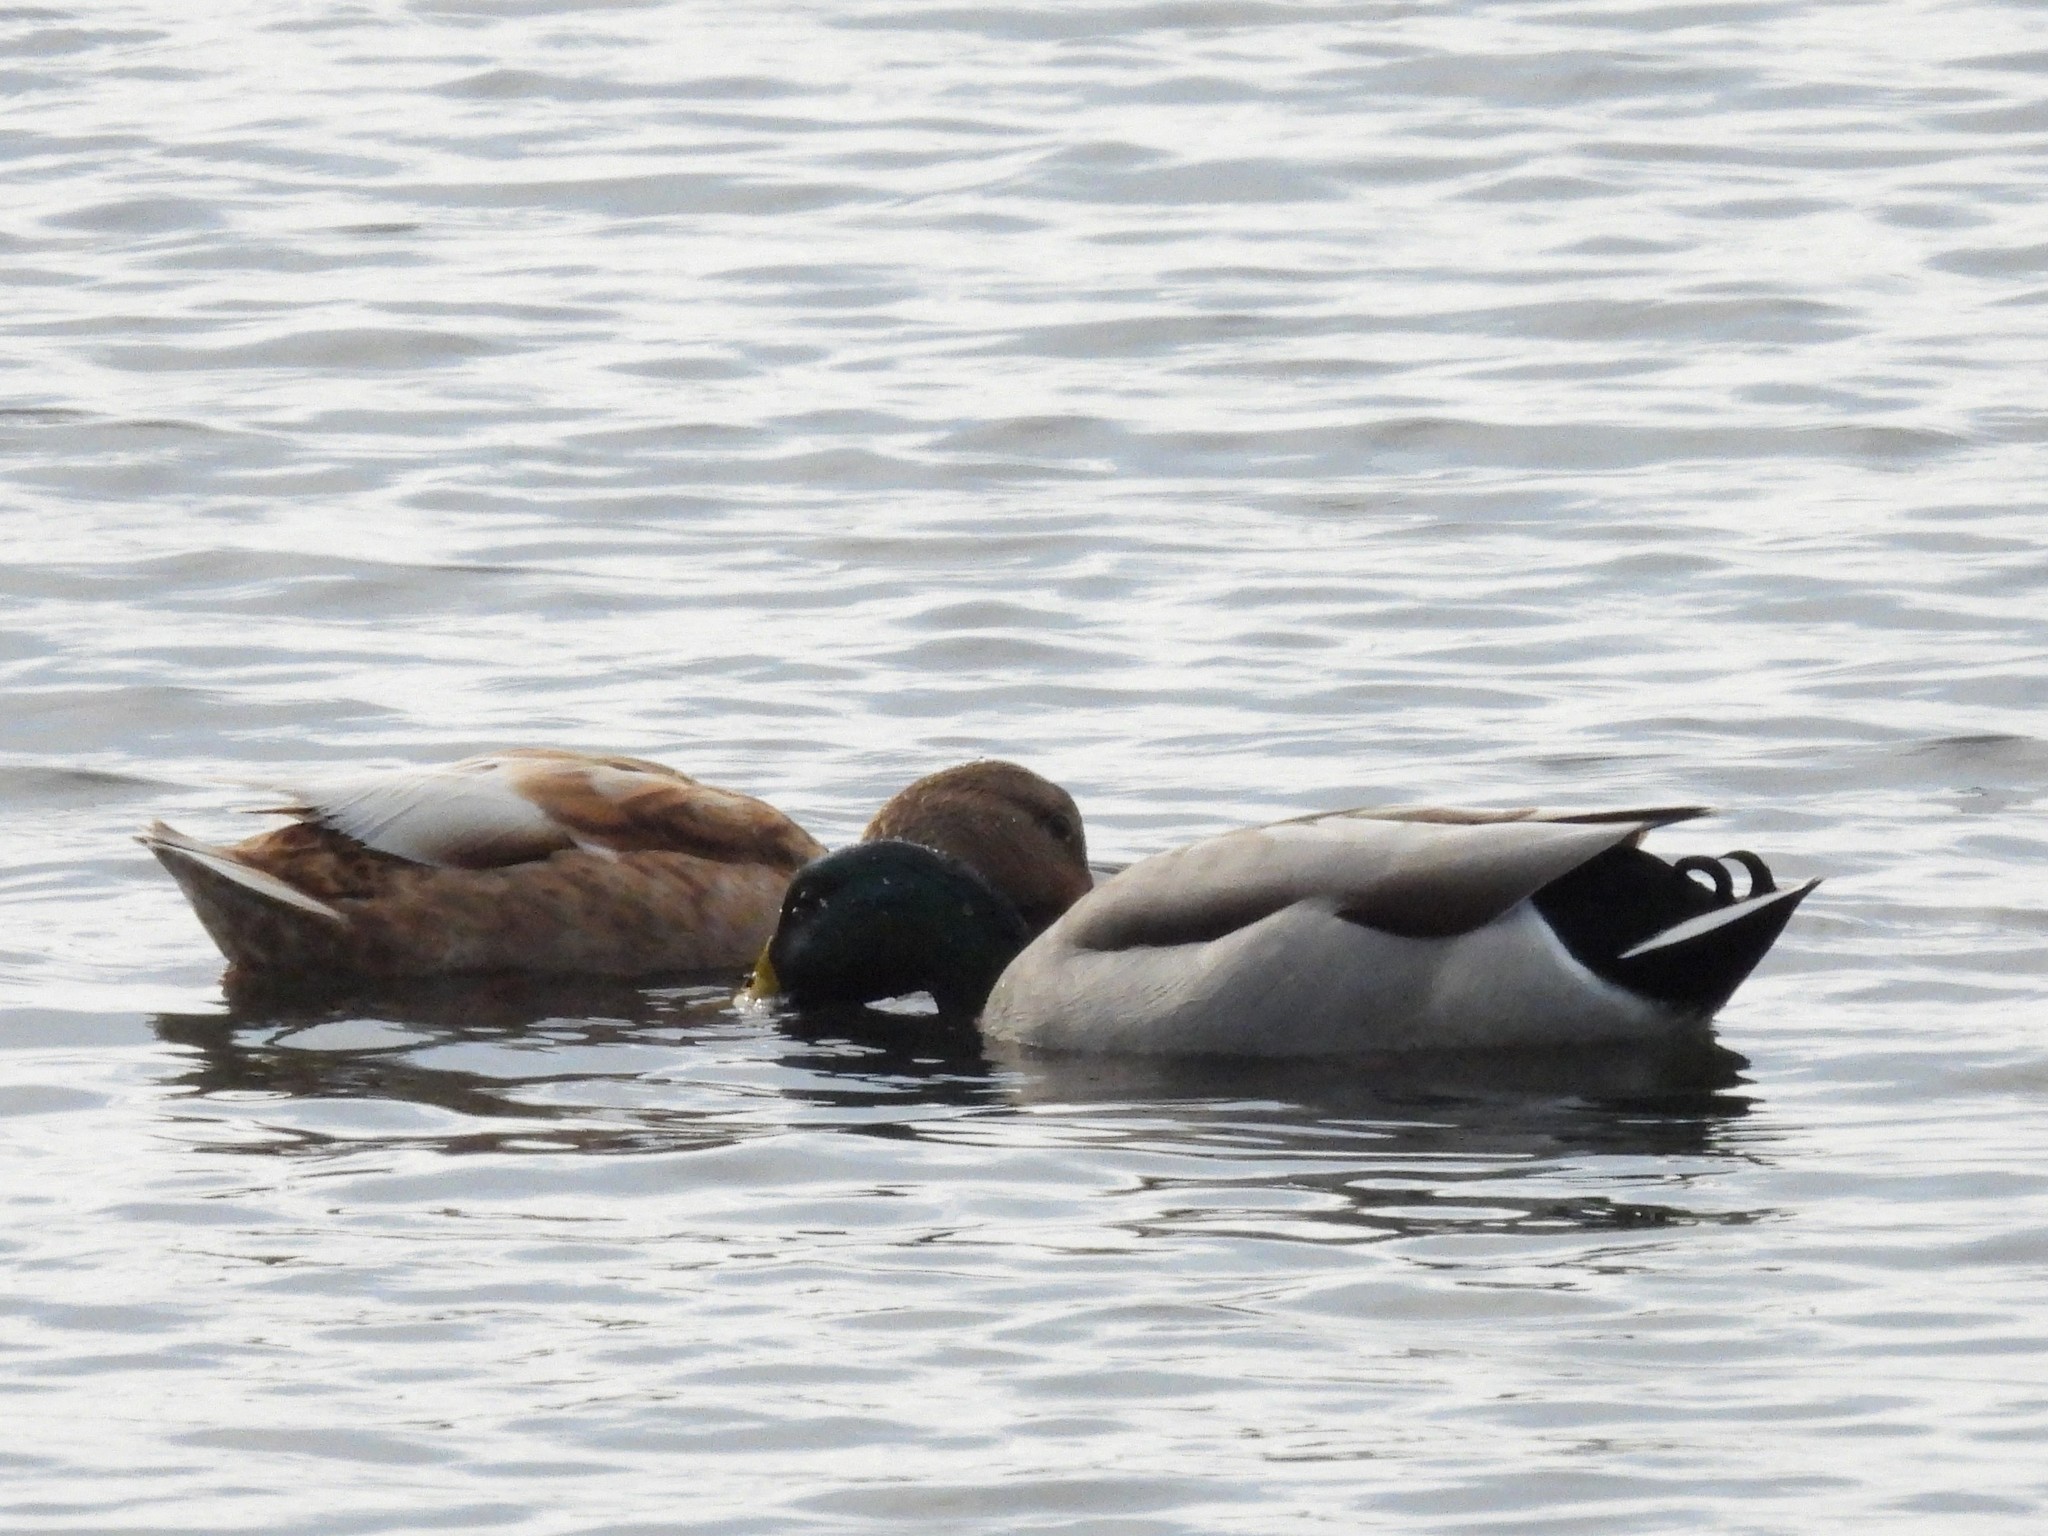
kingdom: Animalia
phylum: Chordata
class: Aves
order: Anseriformes
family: Anatidae
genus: Anas
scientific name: Anas platyrhynchos
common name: Mallard
